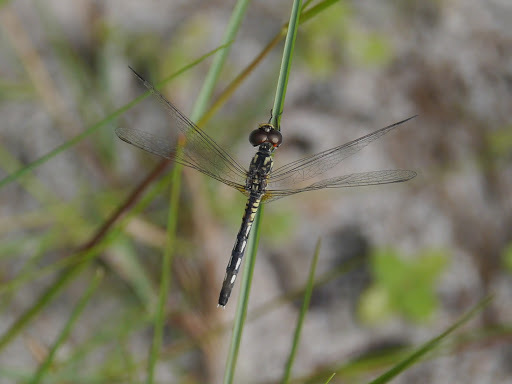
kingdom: Animalia
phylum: Arthropoda
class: Insecta
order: Odonata
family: Libellulidae
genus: Diplacodes
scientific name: Diplacodes deminuta
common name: Little percher
